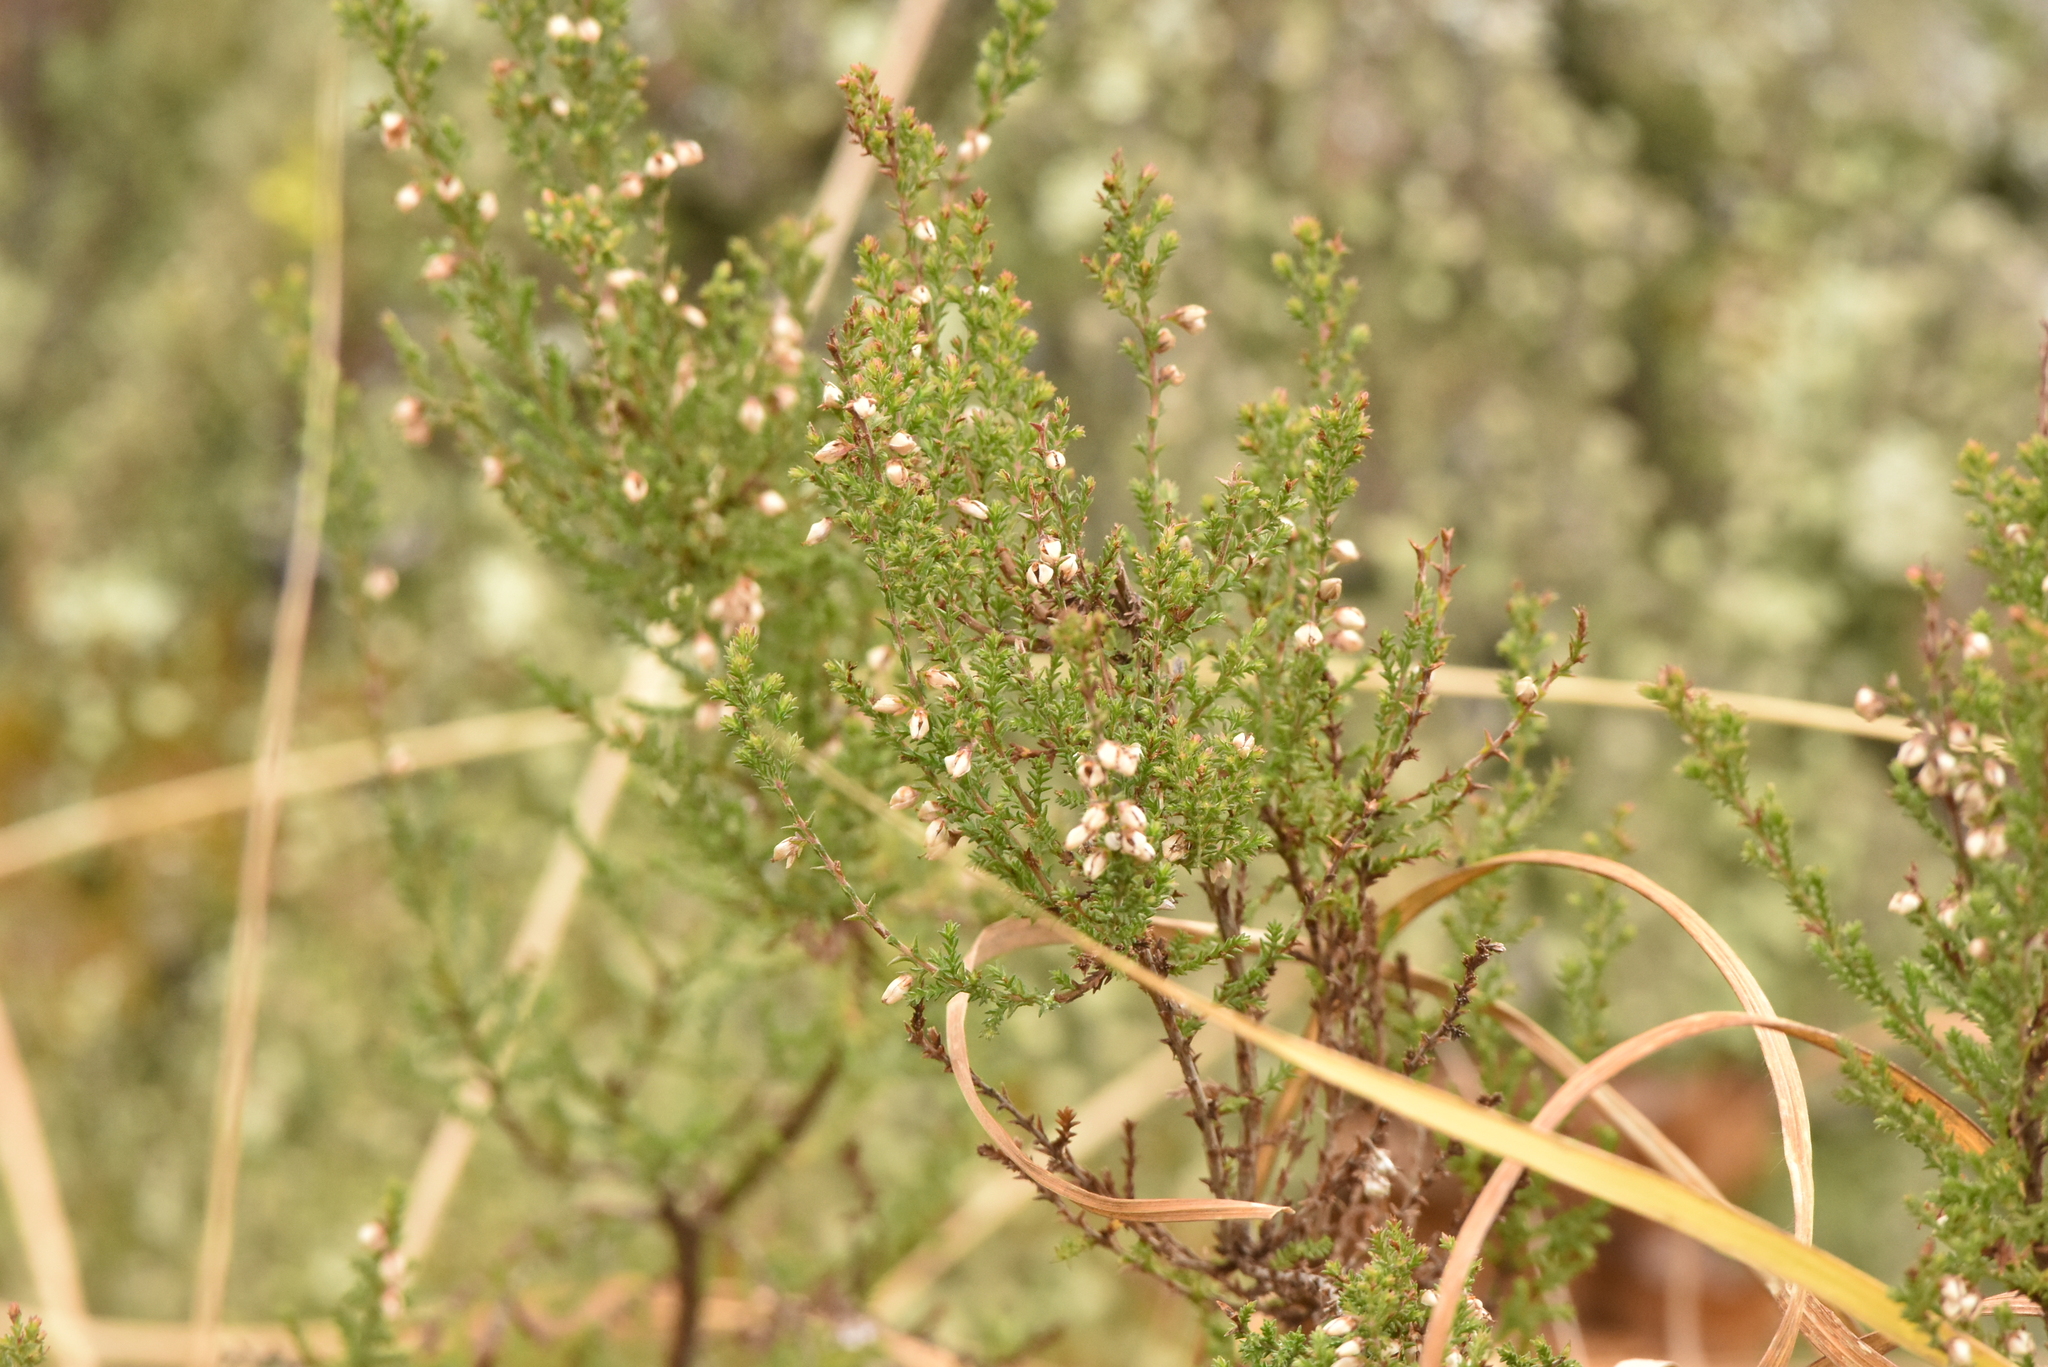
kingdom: Plantae
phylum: Tracheophyta
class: Magnoliopsida
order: Ericales
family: Ericaceae
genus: Calluna
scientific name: Calluna vulgaris
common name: Heather
